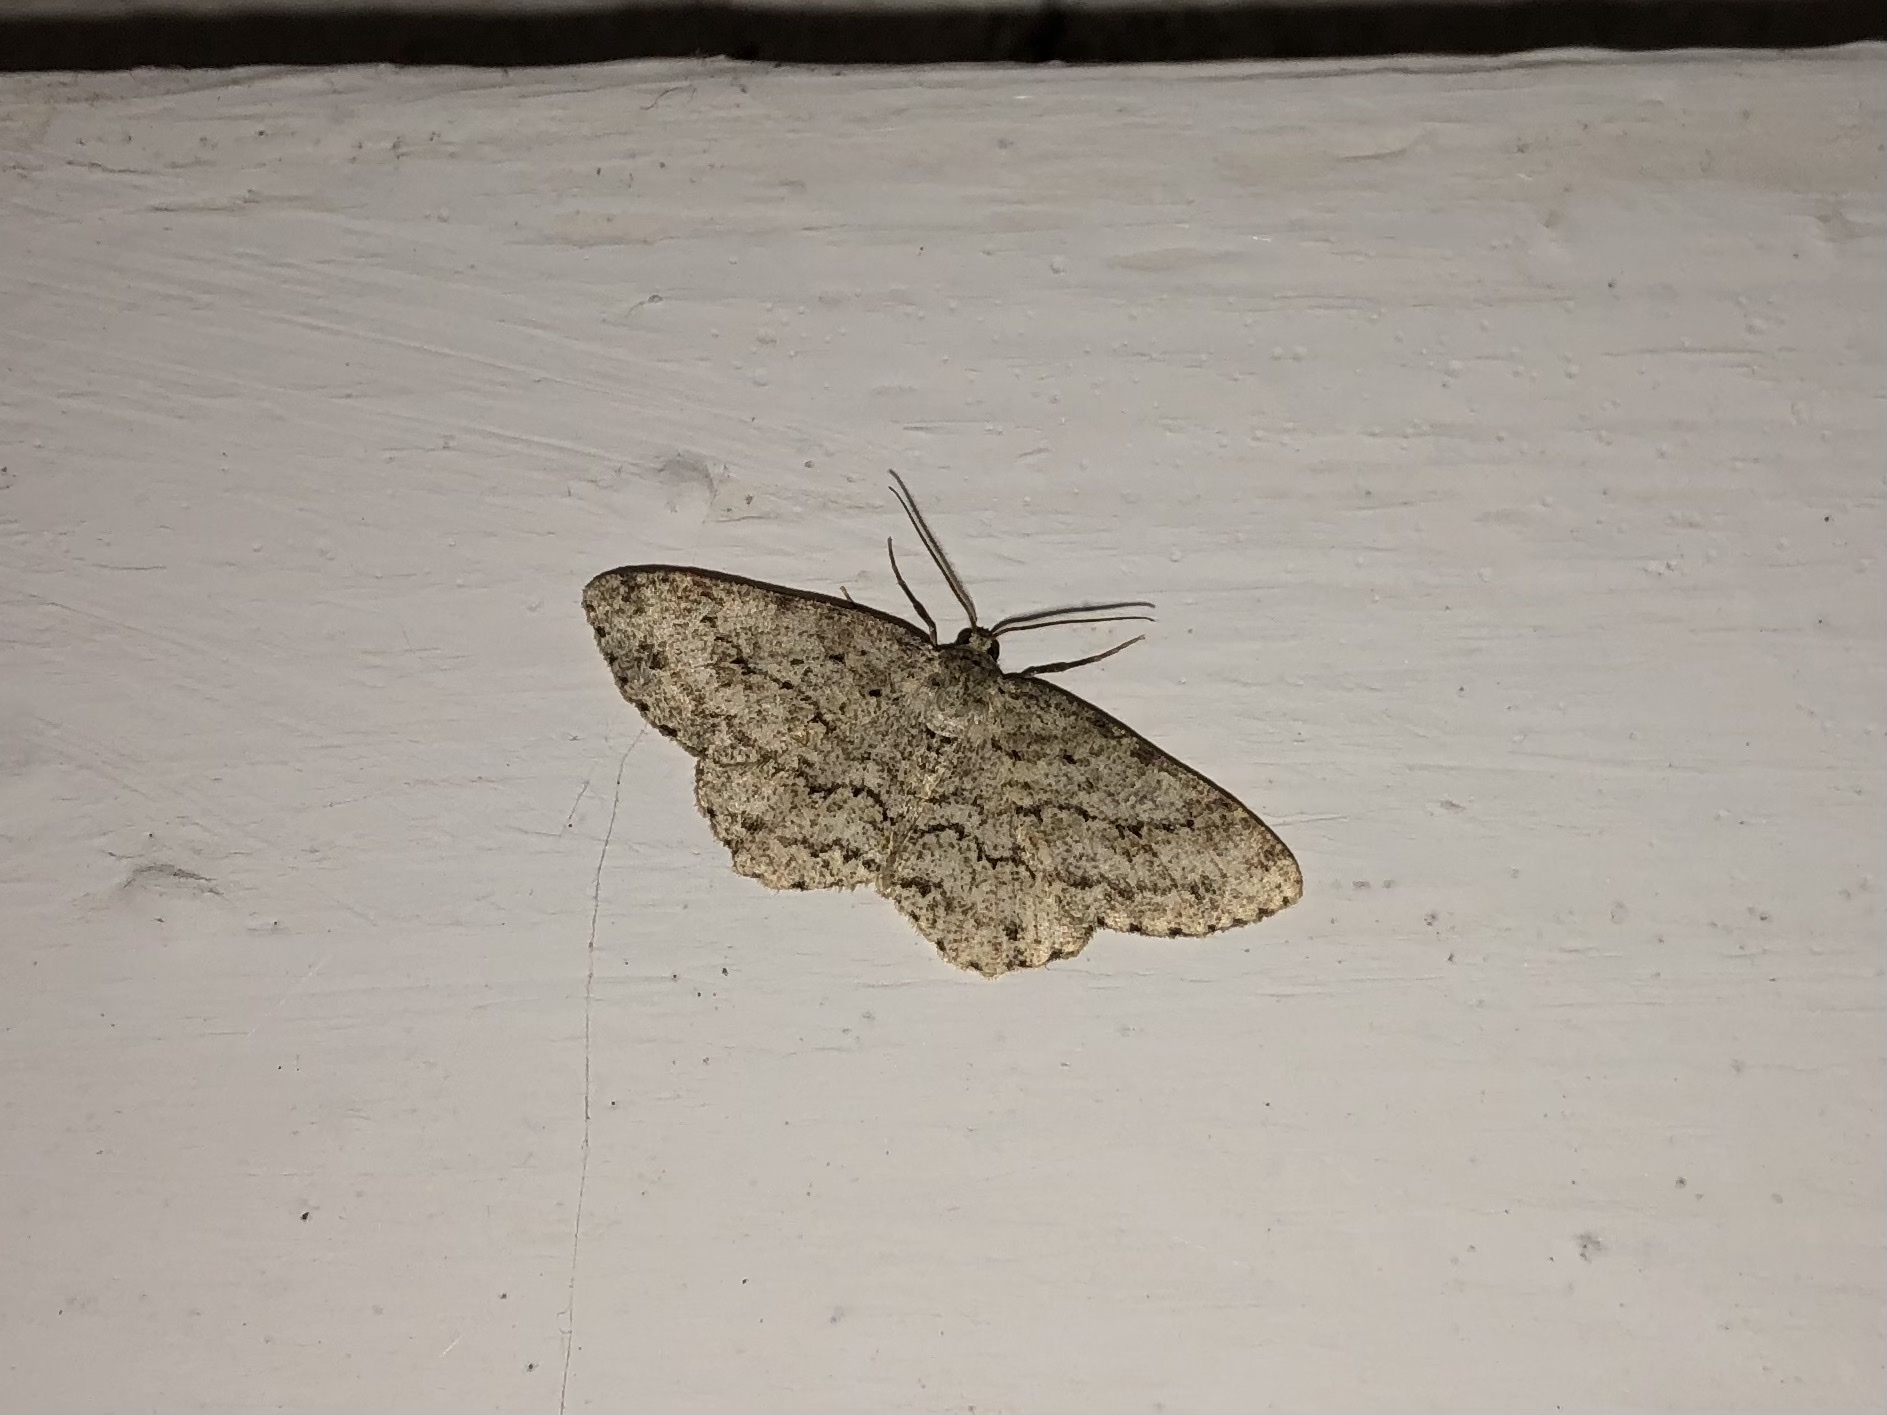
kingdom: Animalia
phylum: Arthropoda
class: Insecta
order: Lepidoptera
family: Geometridae
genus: Ectropis
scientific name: Ectropis crepuscularia
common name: Engrailed
